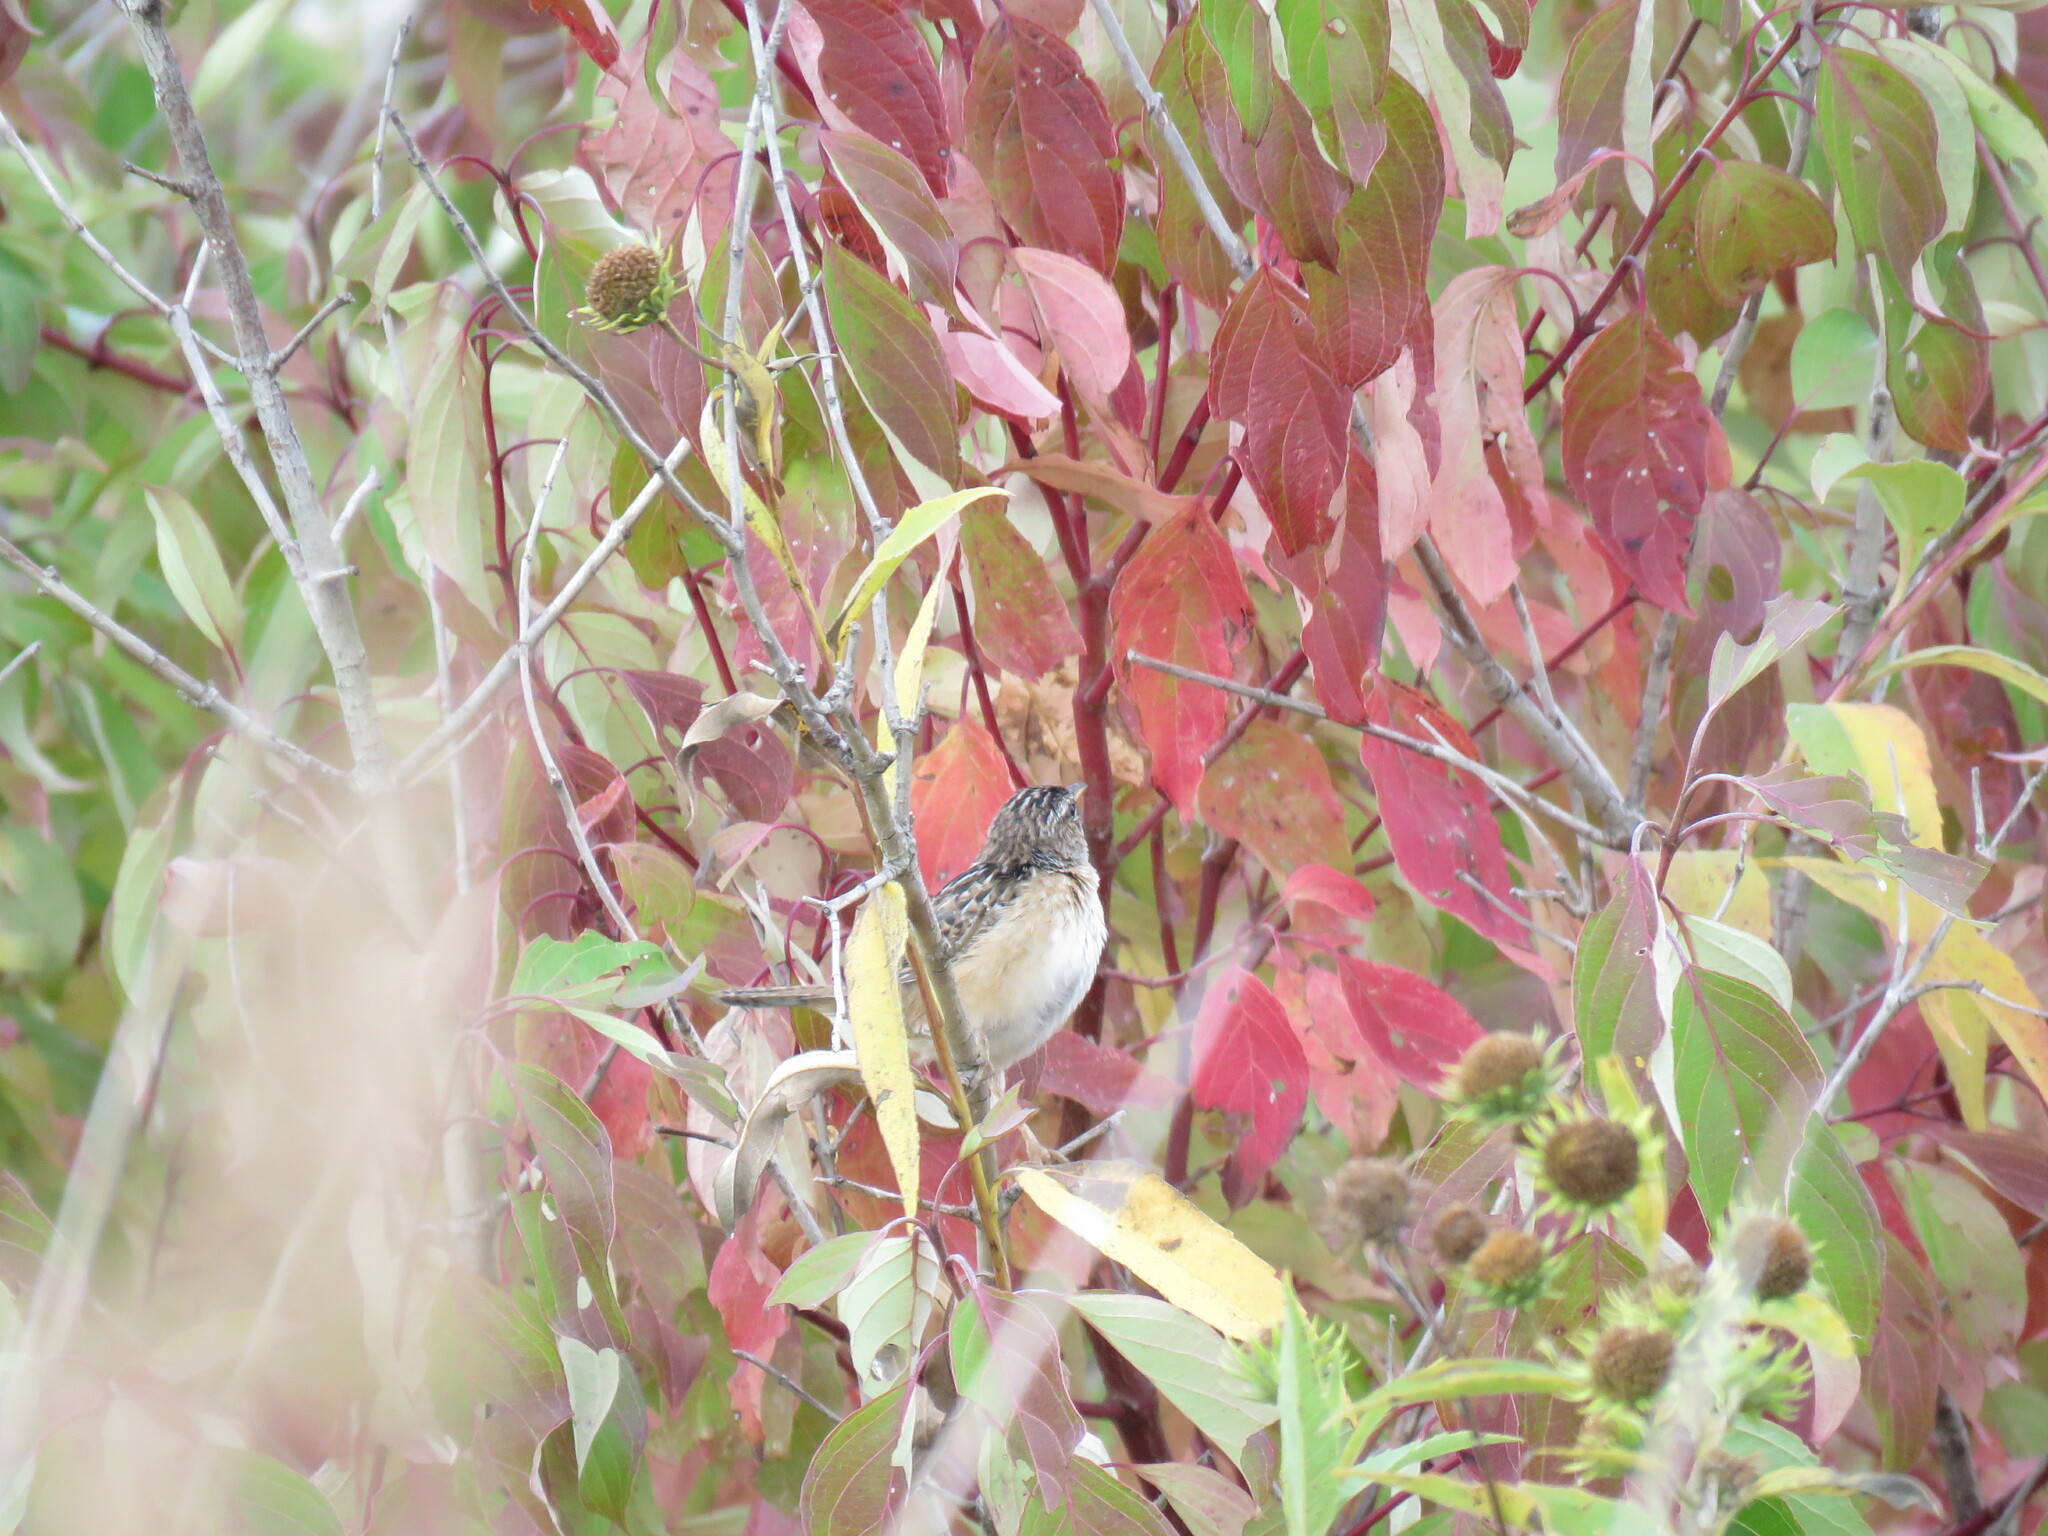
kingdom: Animalia
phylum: Chordata
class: Aves
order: Passeriformes
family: Troglodytidae
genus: Cistothorus
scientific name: Cistothorus platensis
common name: Sedge wren
